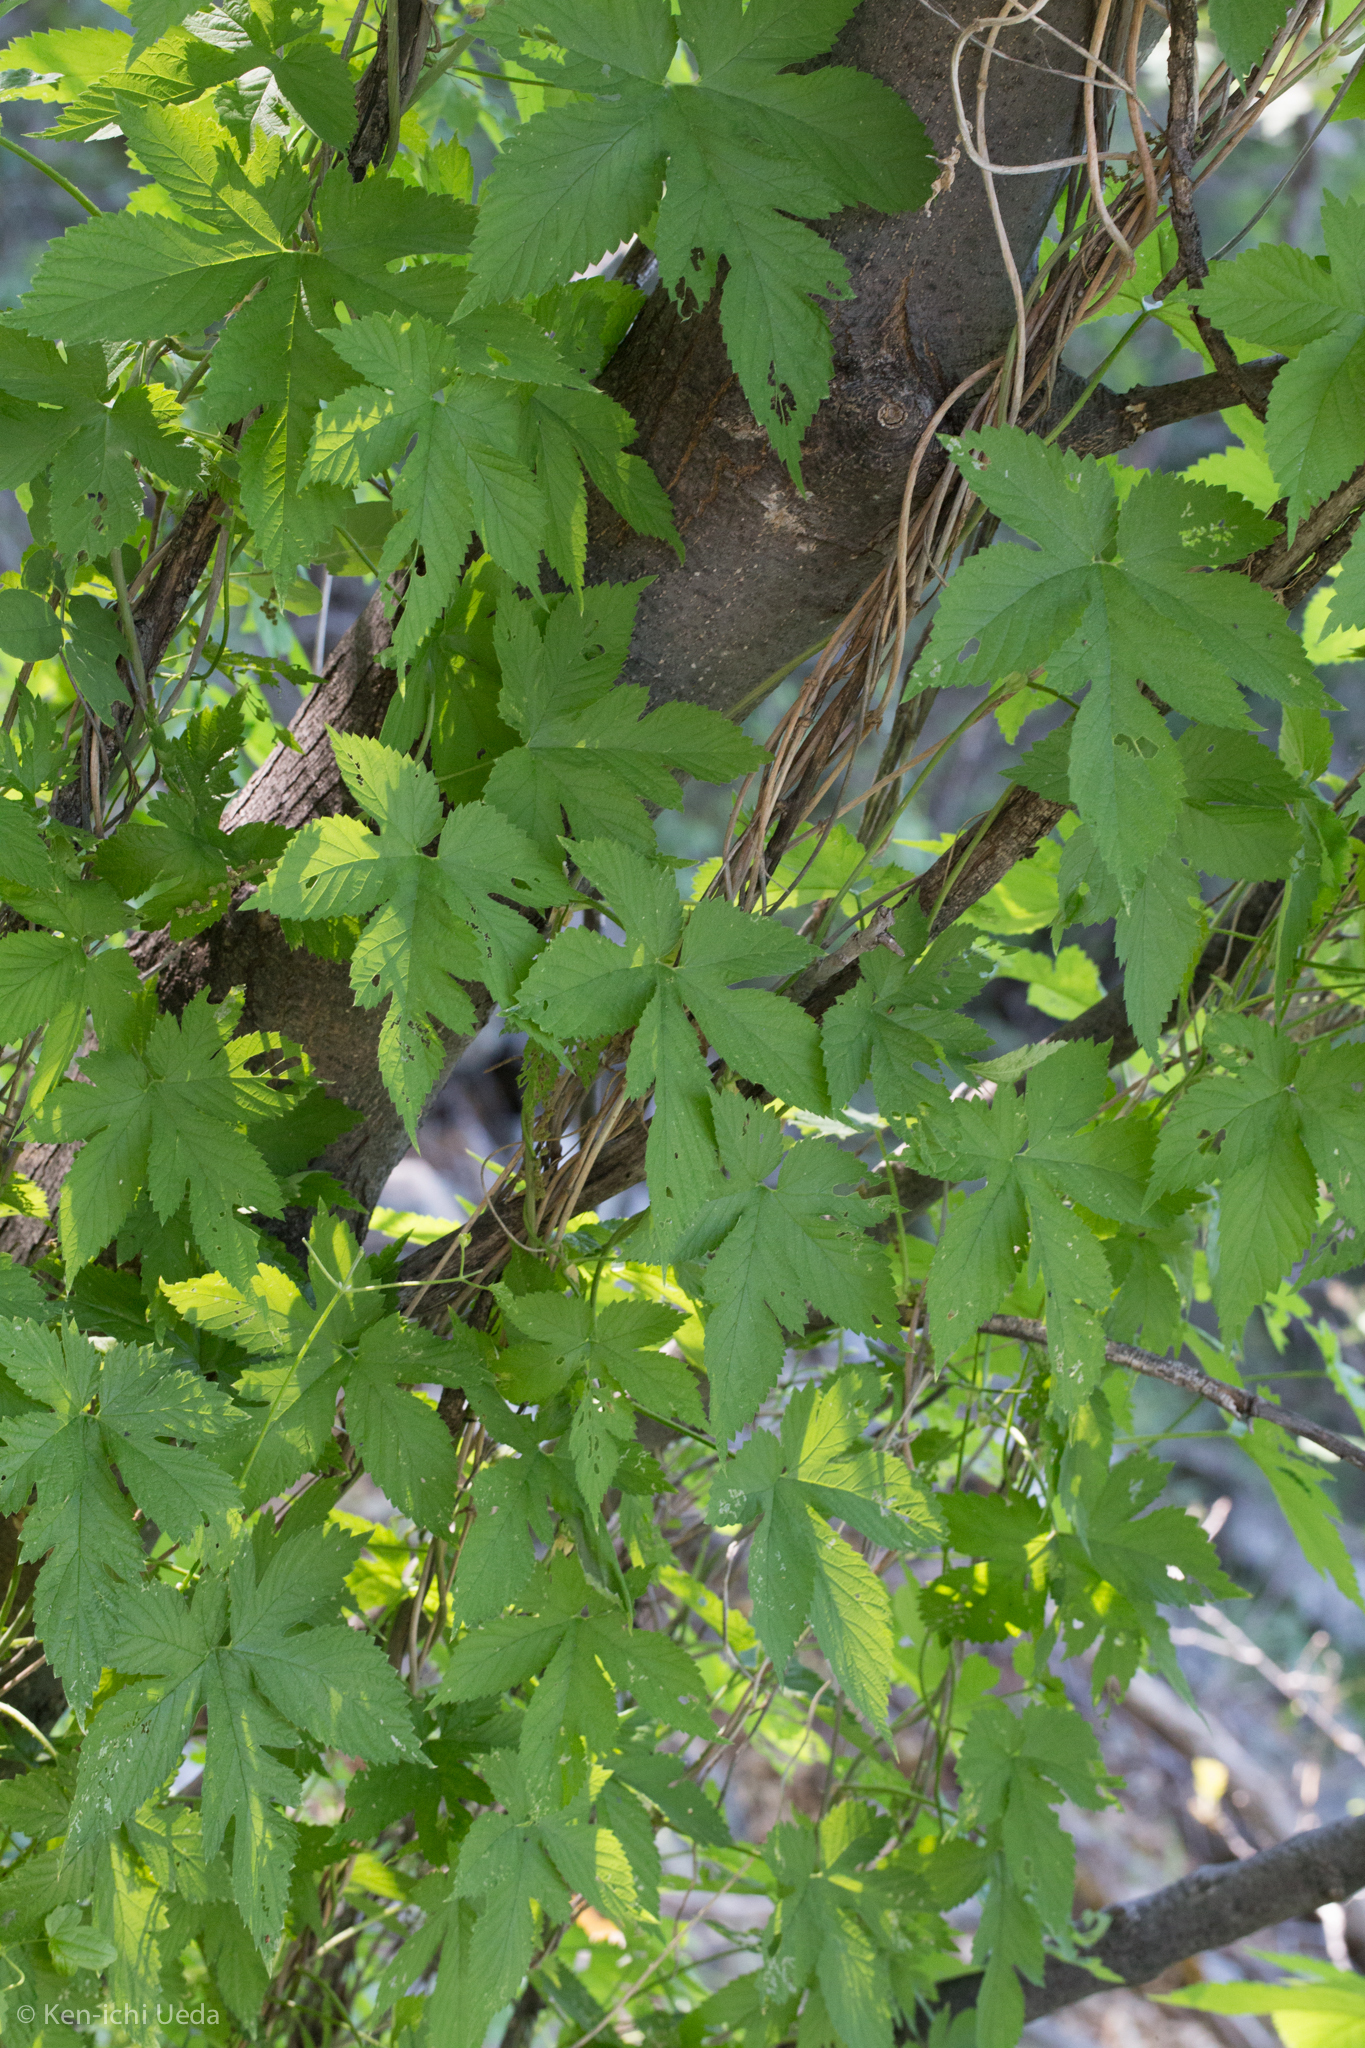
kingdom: Plantae
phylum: Tracheophyta
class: Magnoliopsida
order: Rosales
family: Cannabaceae
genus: Humulus
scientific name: Humulus neomexicanus
